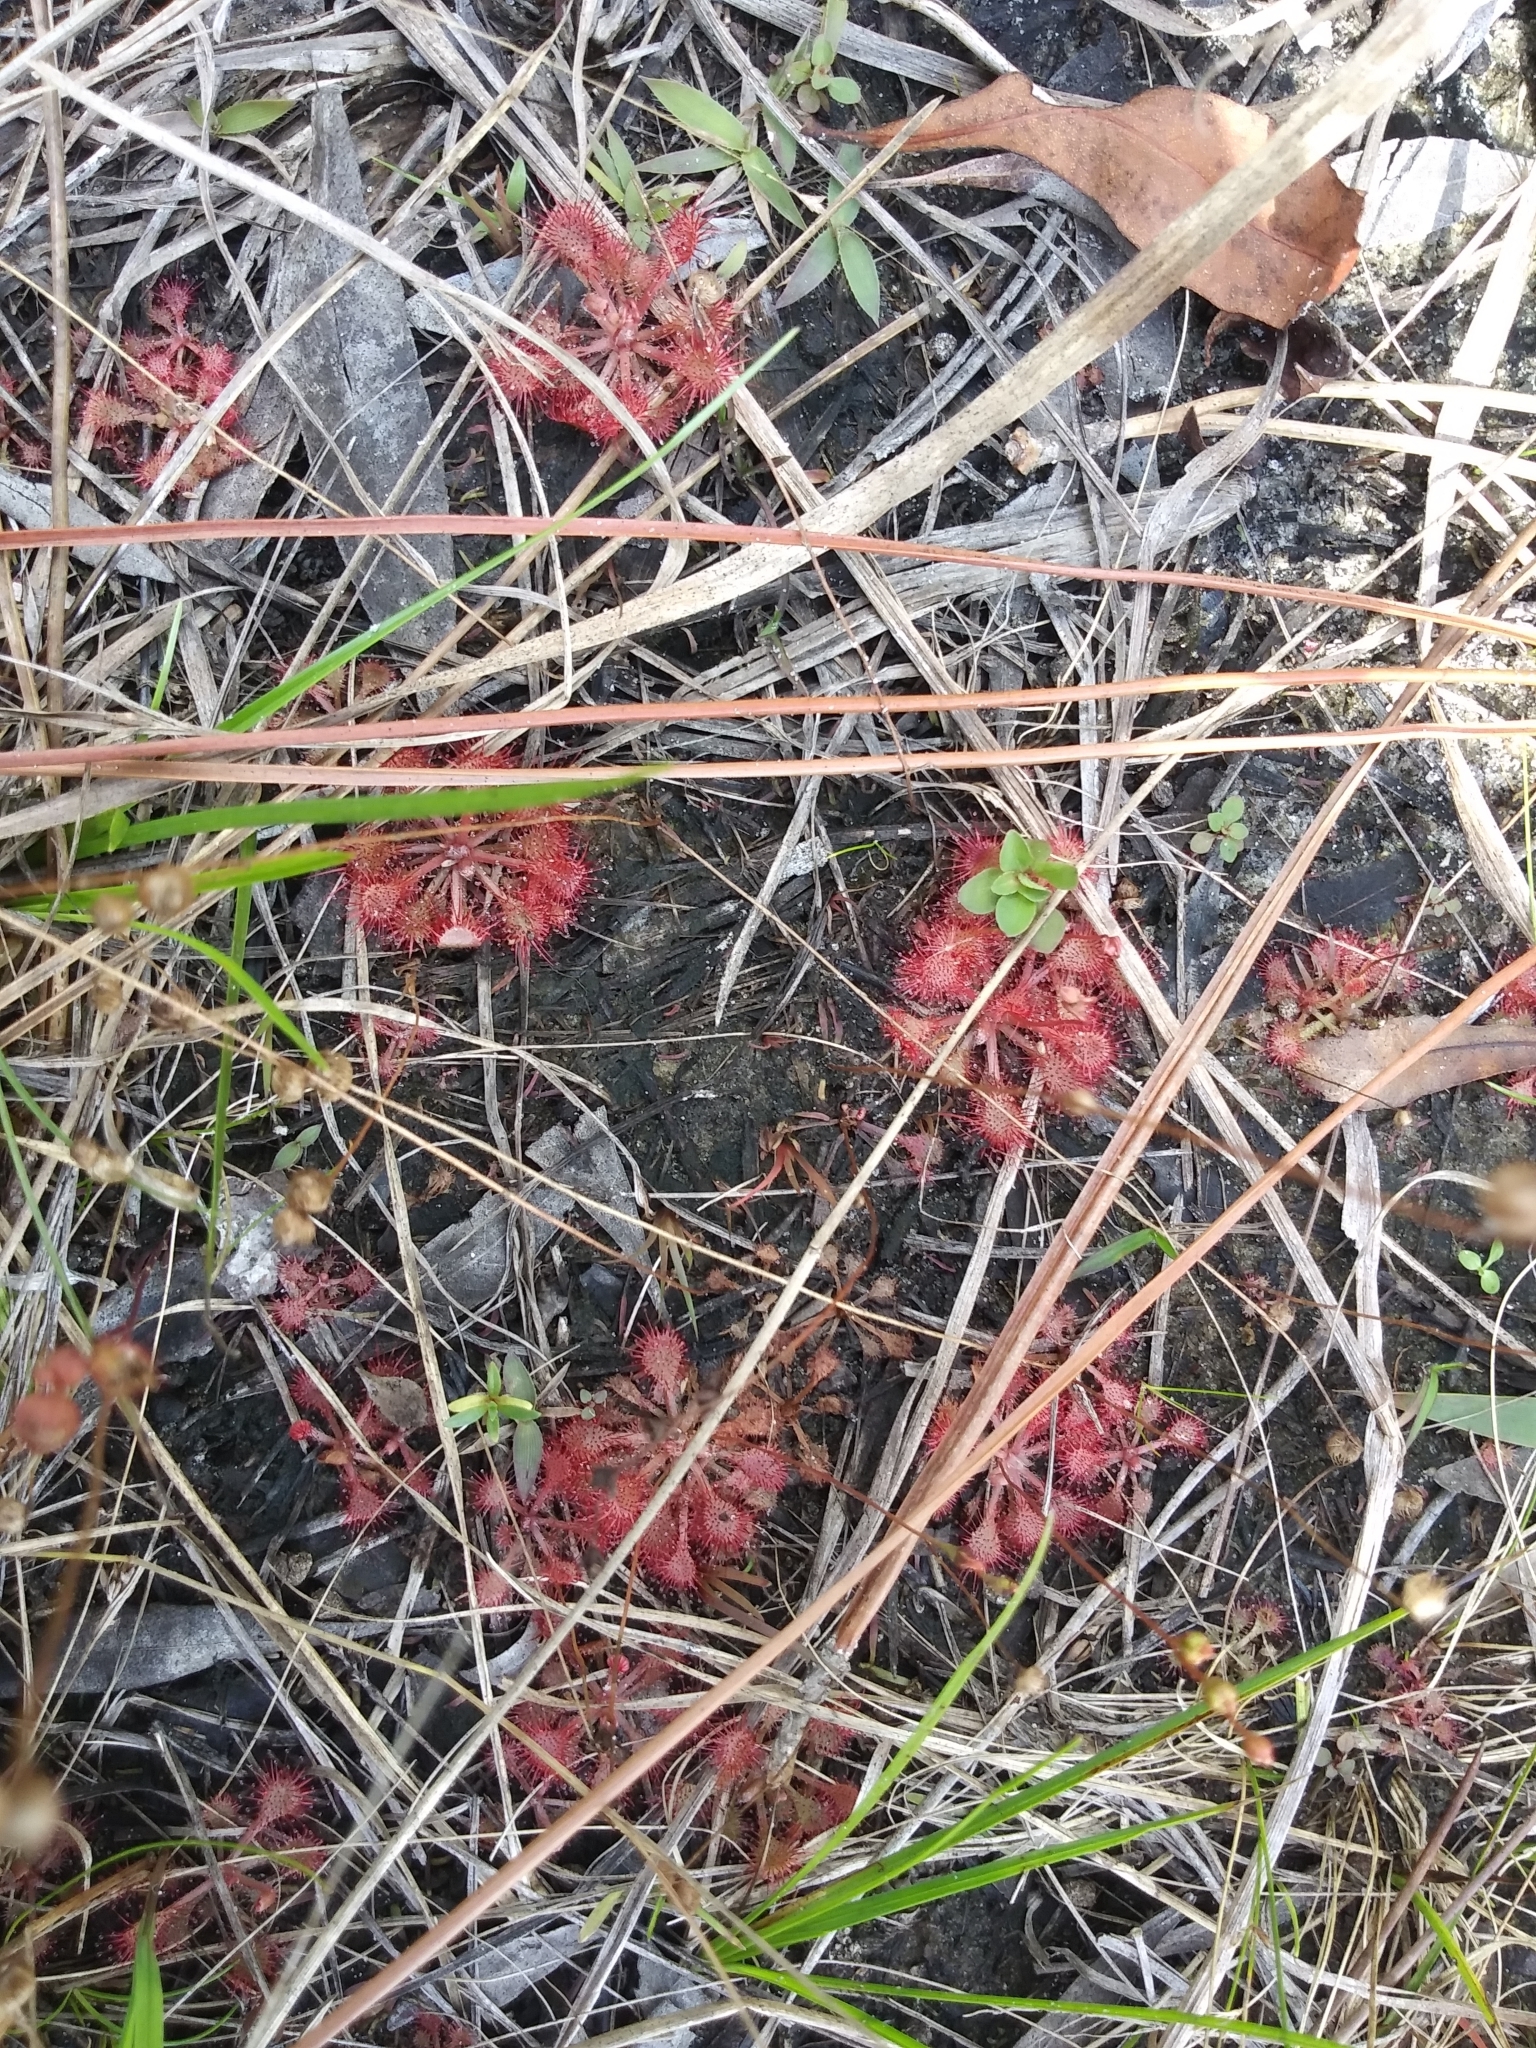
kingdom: Plantae
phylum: Tracheophyta
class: Magnoliopsida
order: Caryophyllales
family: Droseraceae
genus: Drosera
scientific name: Drosera capillaris
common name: Pink sundew
